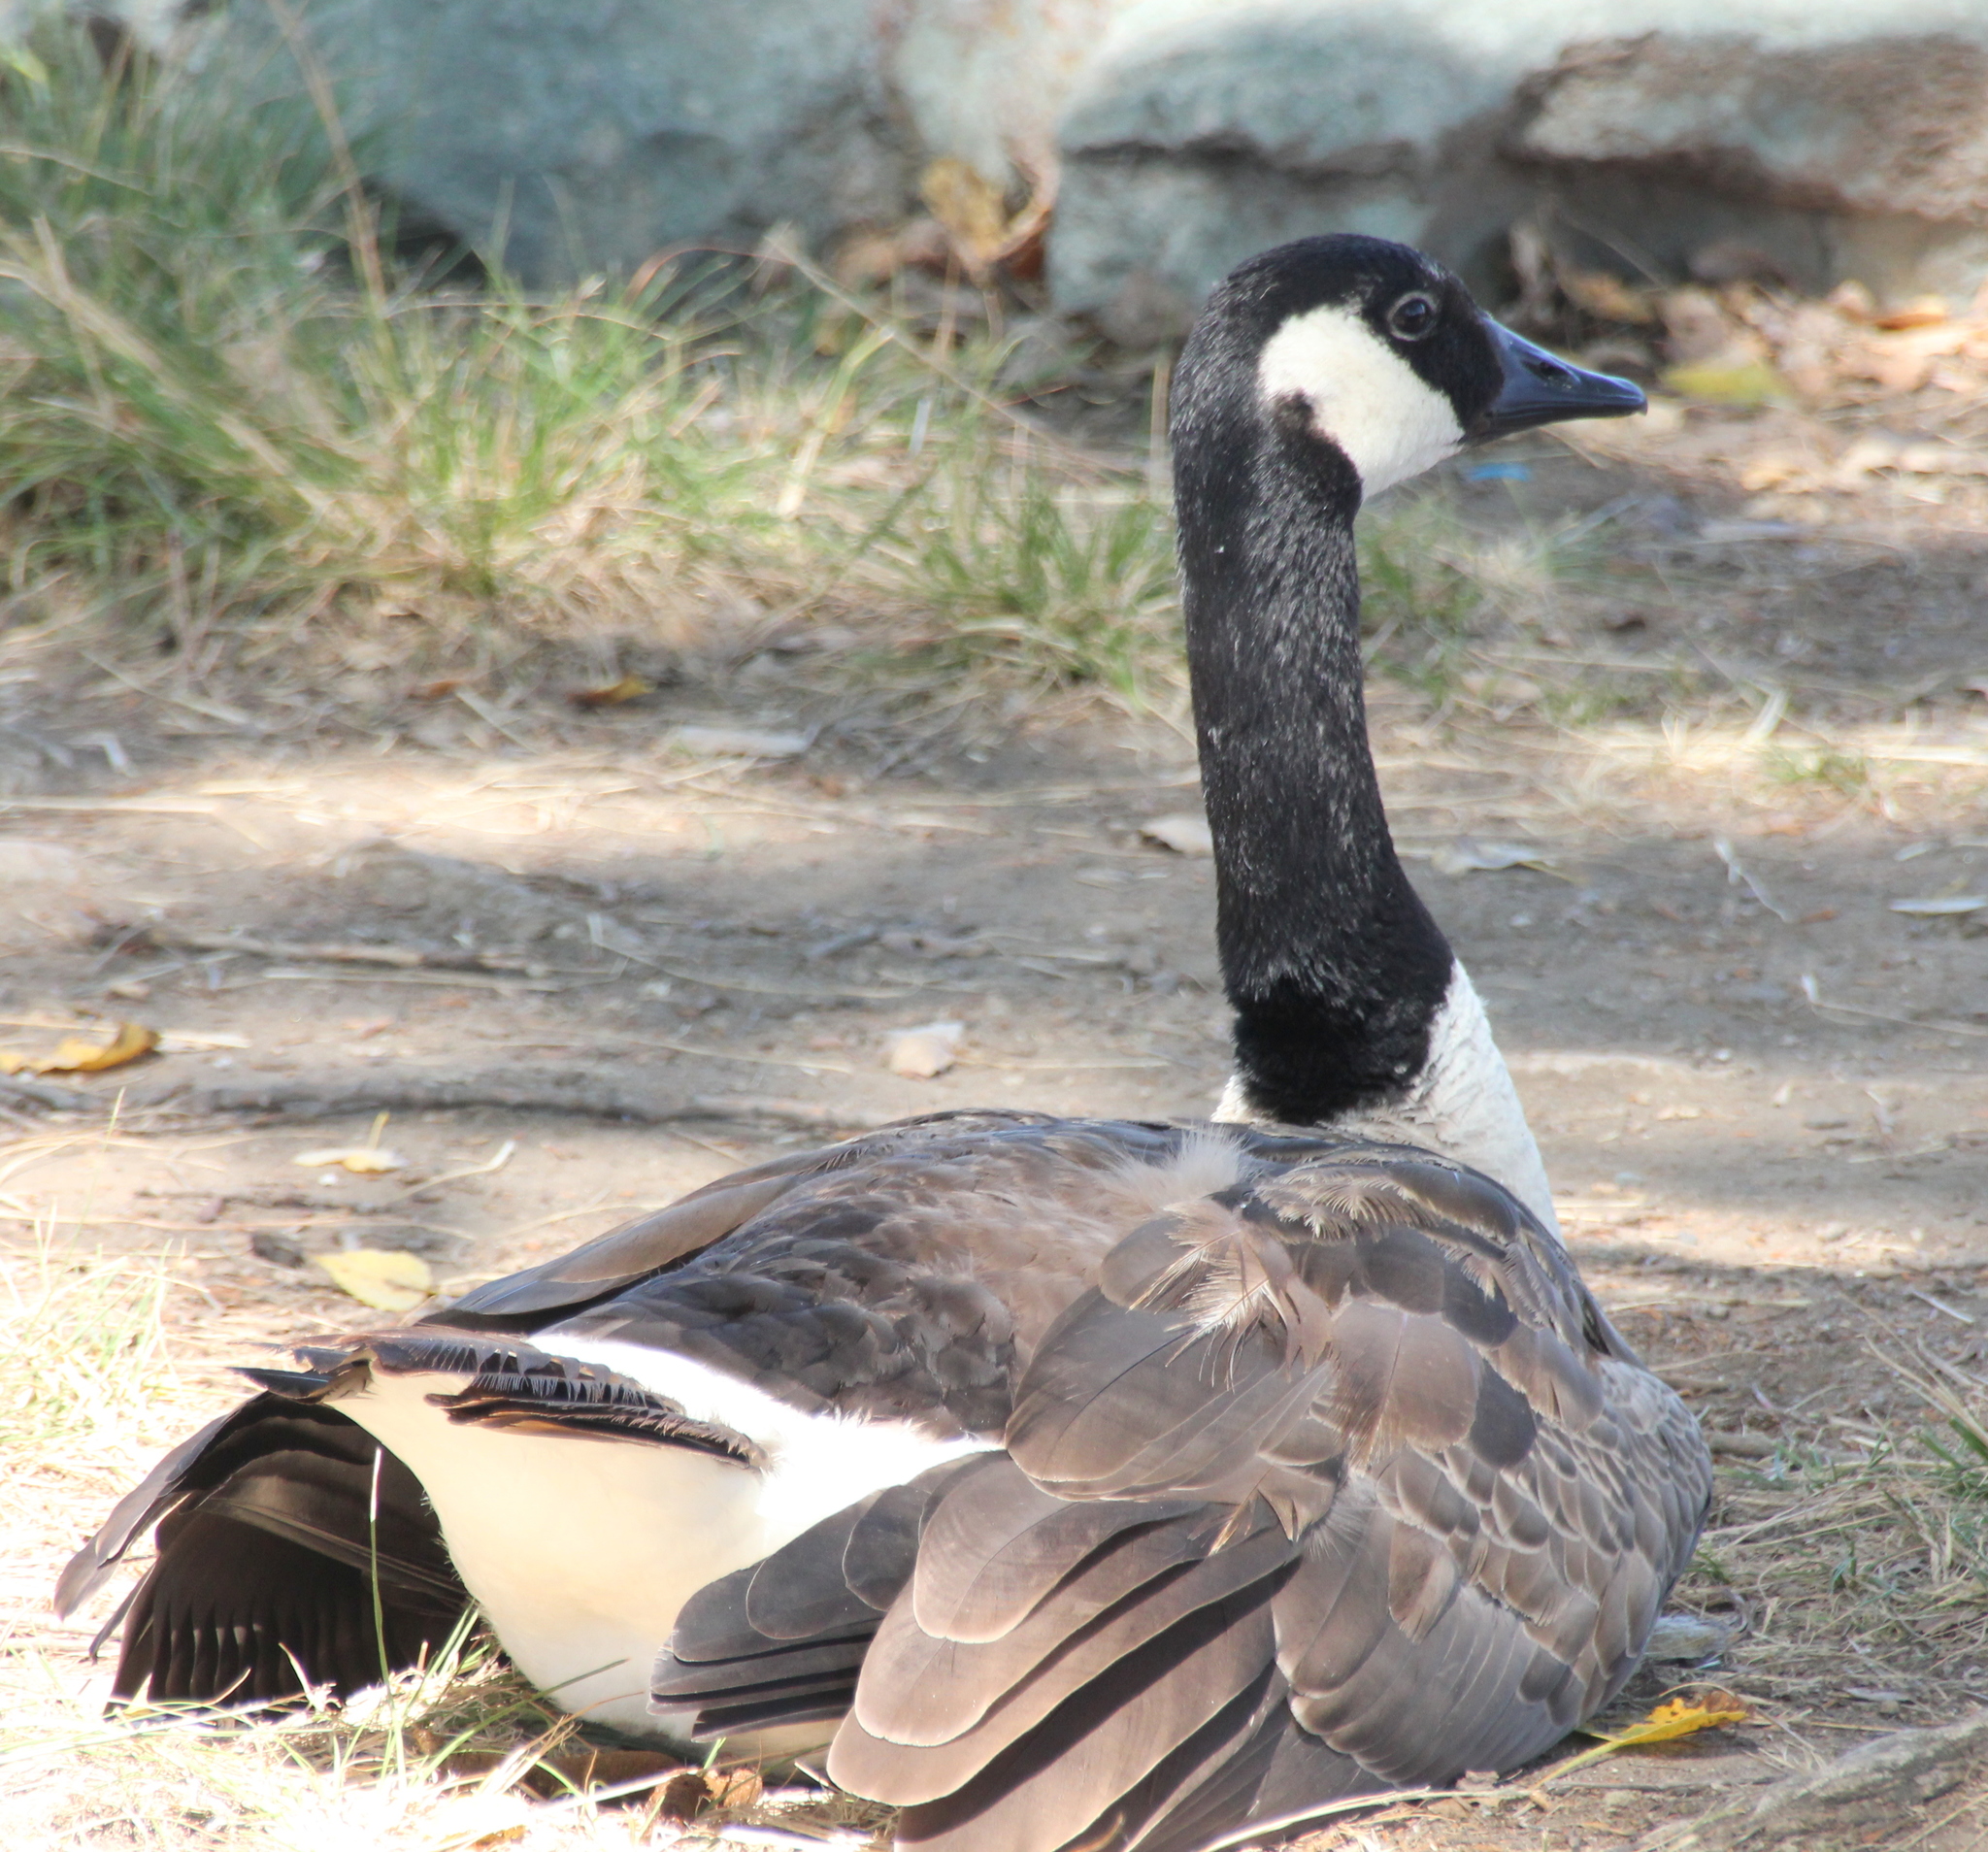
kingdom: Animalia
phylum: Chordata
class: Aves
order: Anseriformes
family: Anatidae
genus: Branta
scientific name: Branta canadensis
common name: Canada goose
